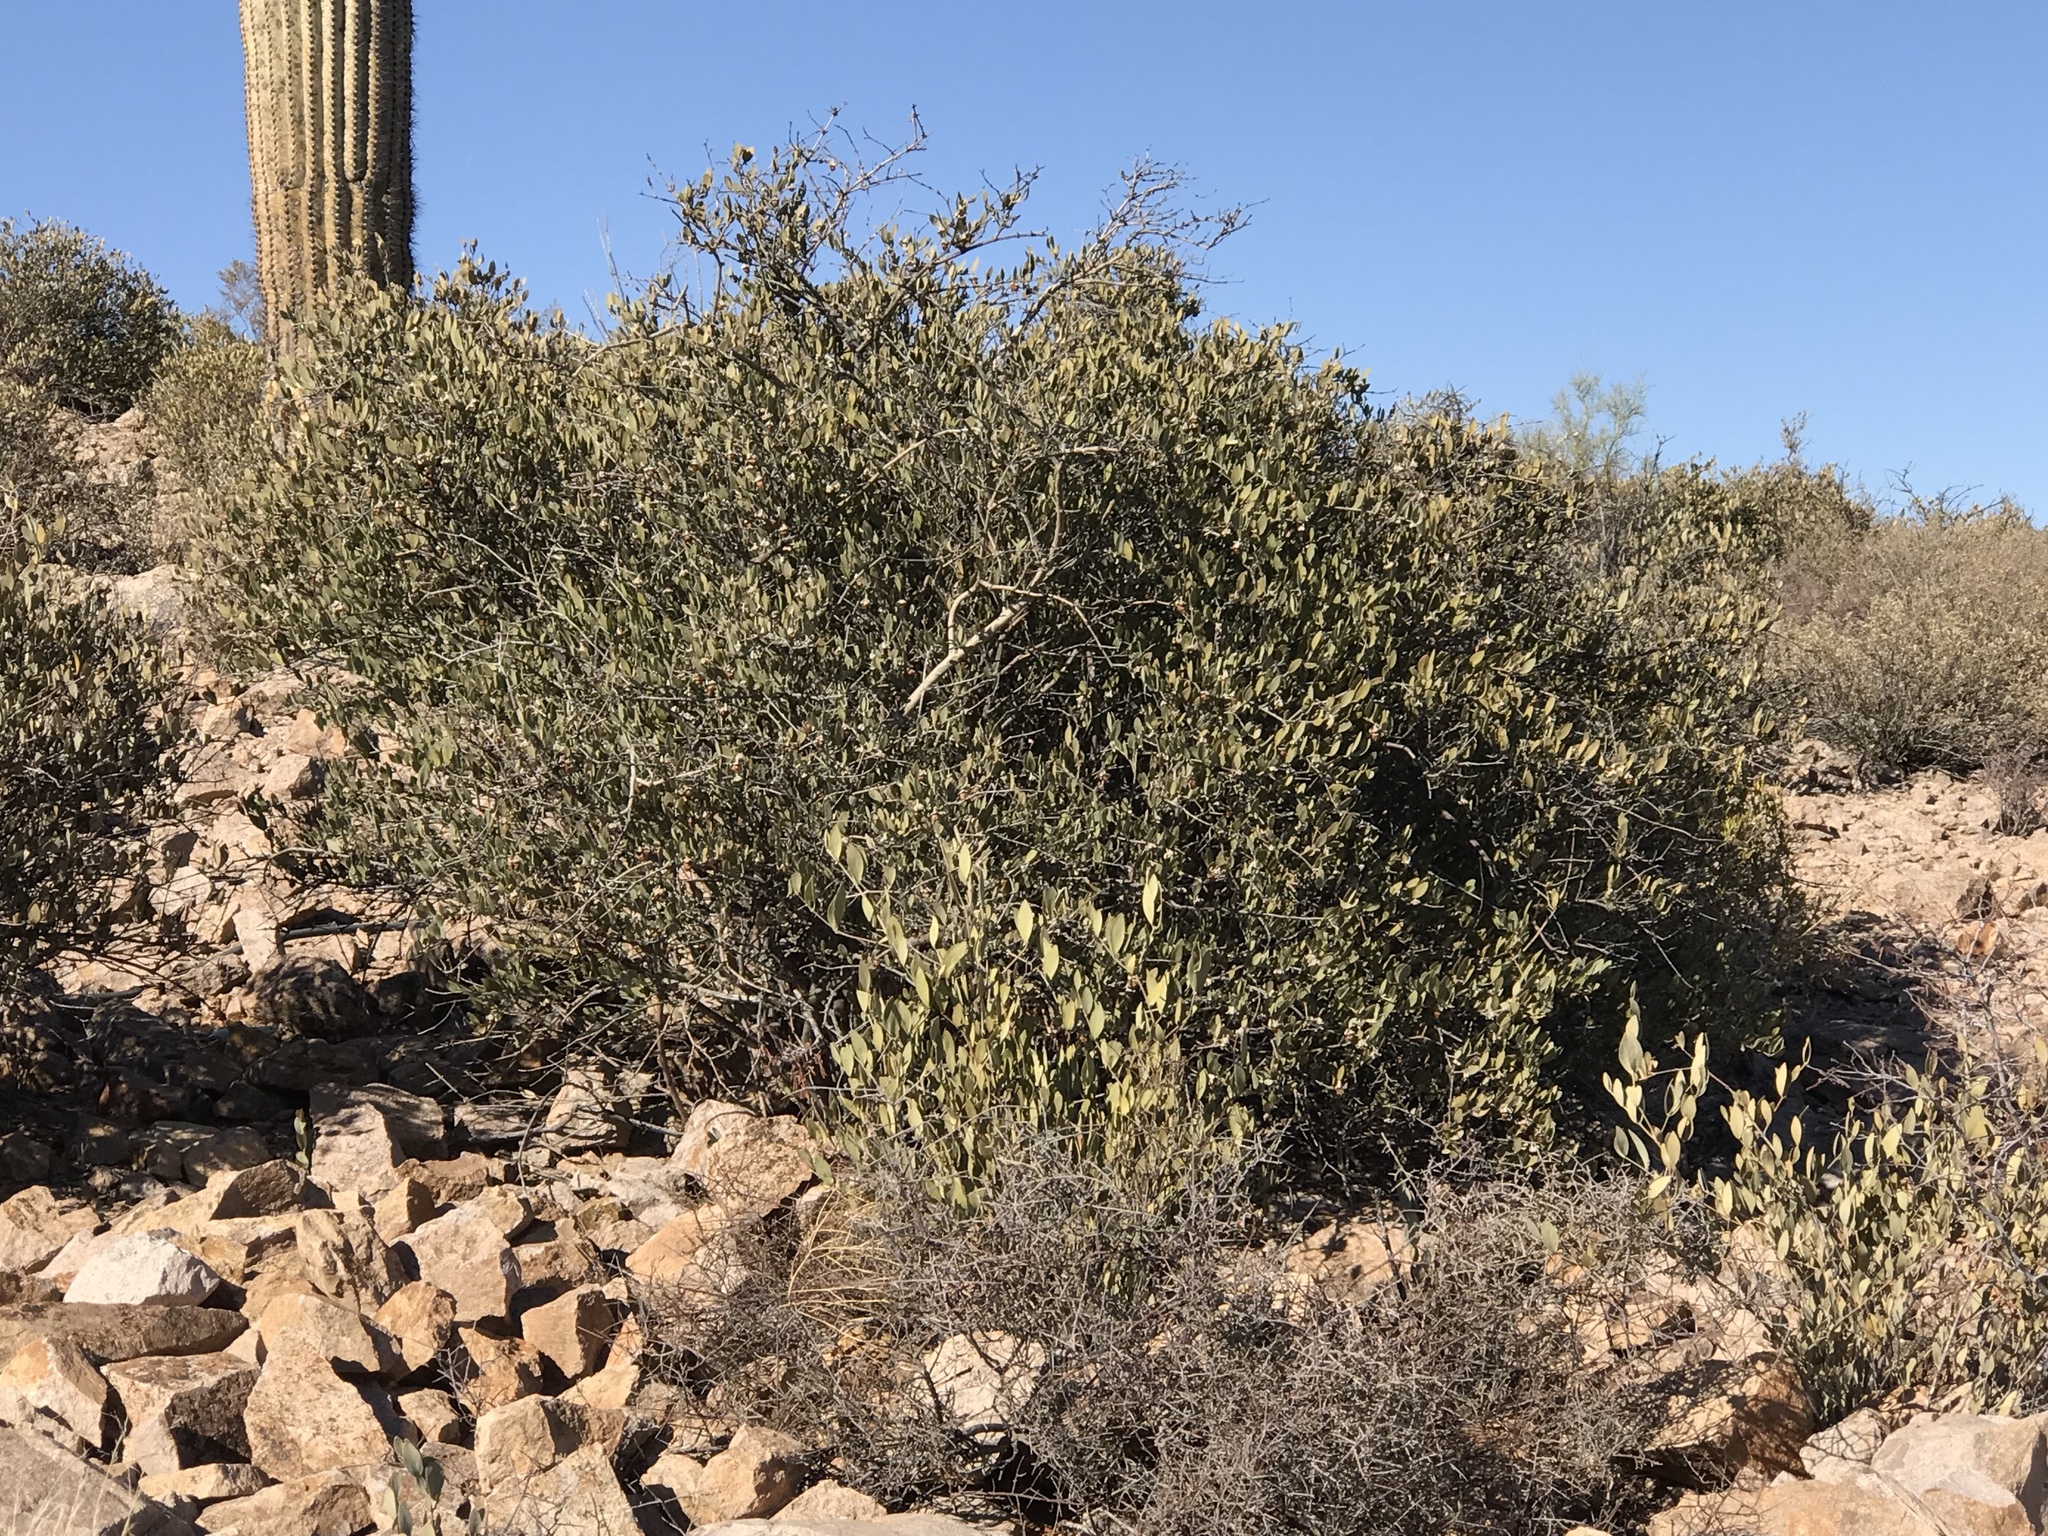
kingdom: Plantae
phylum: Tracheophyta
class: Magnoliopsida
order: Caryophyllales
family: Simmondsiaceae
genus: Simmondsia
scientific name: Simmondsia chinensis
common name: Jojoba
